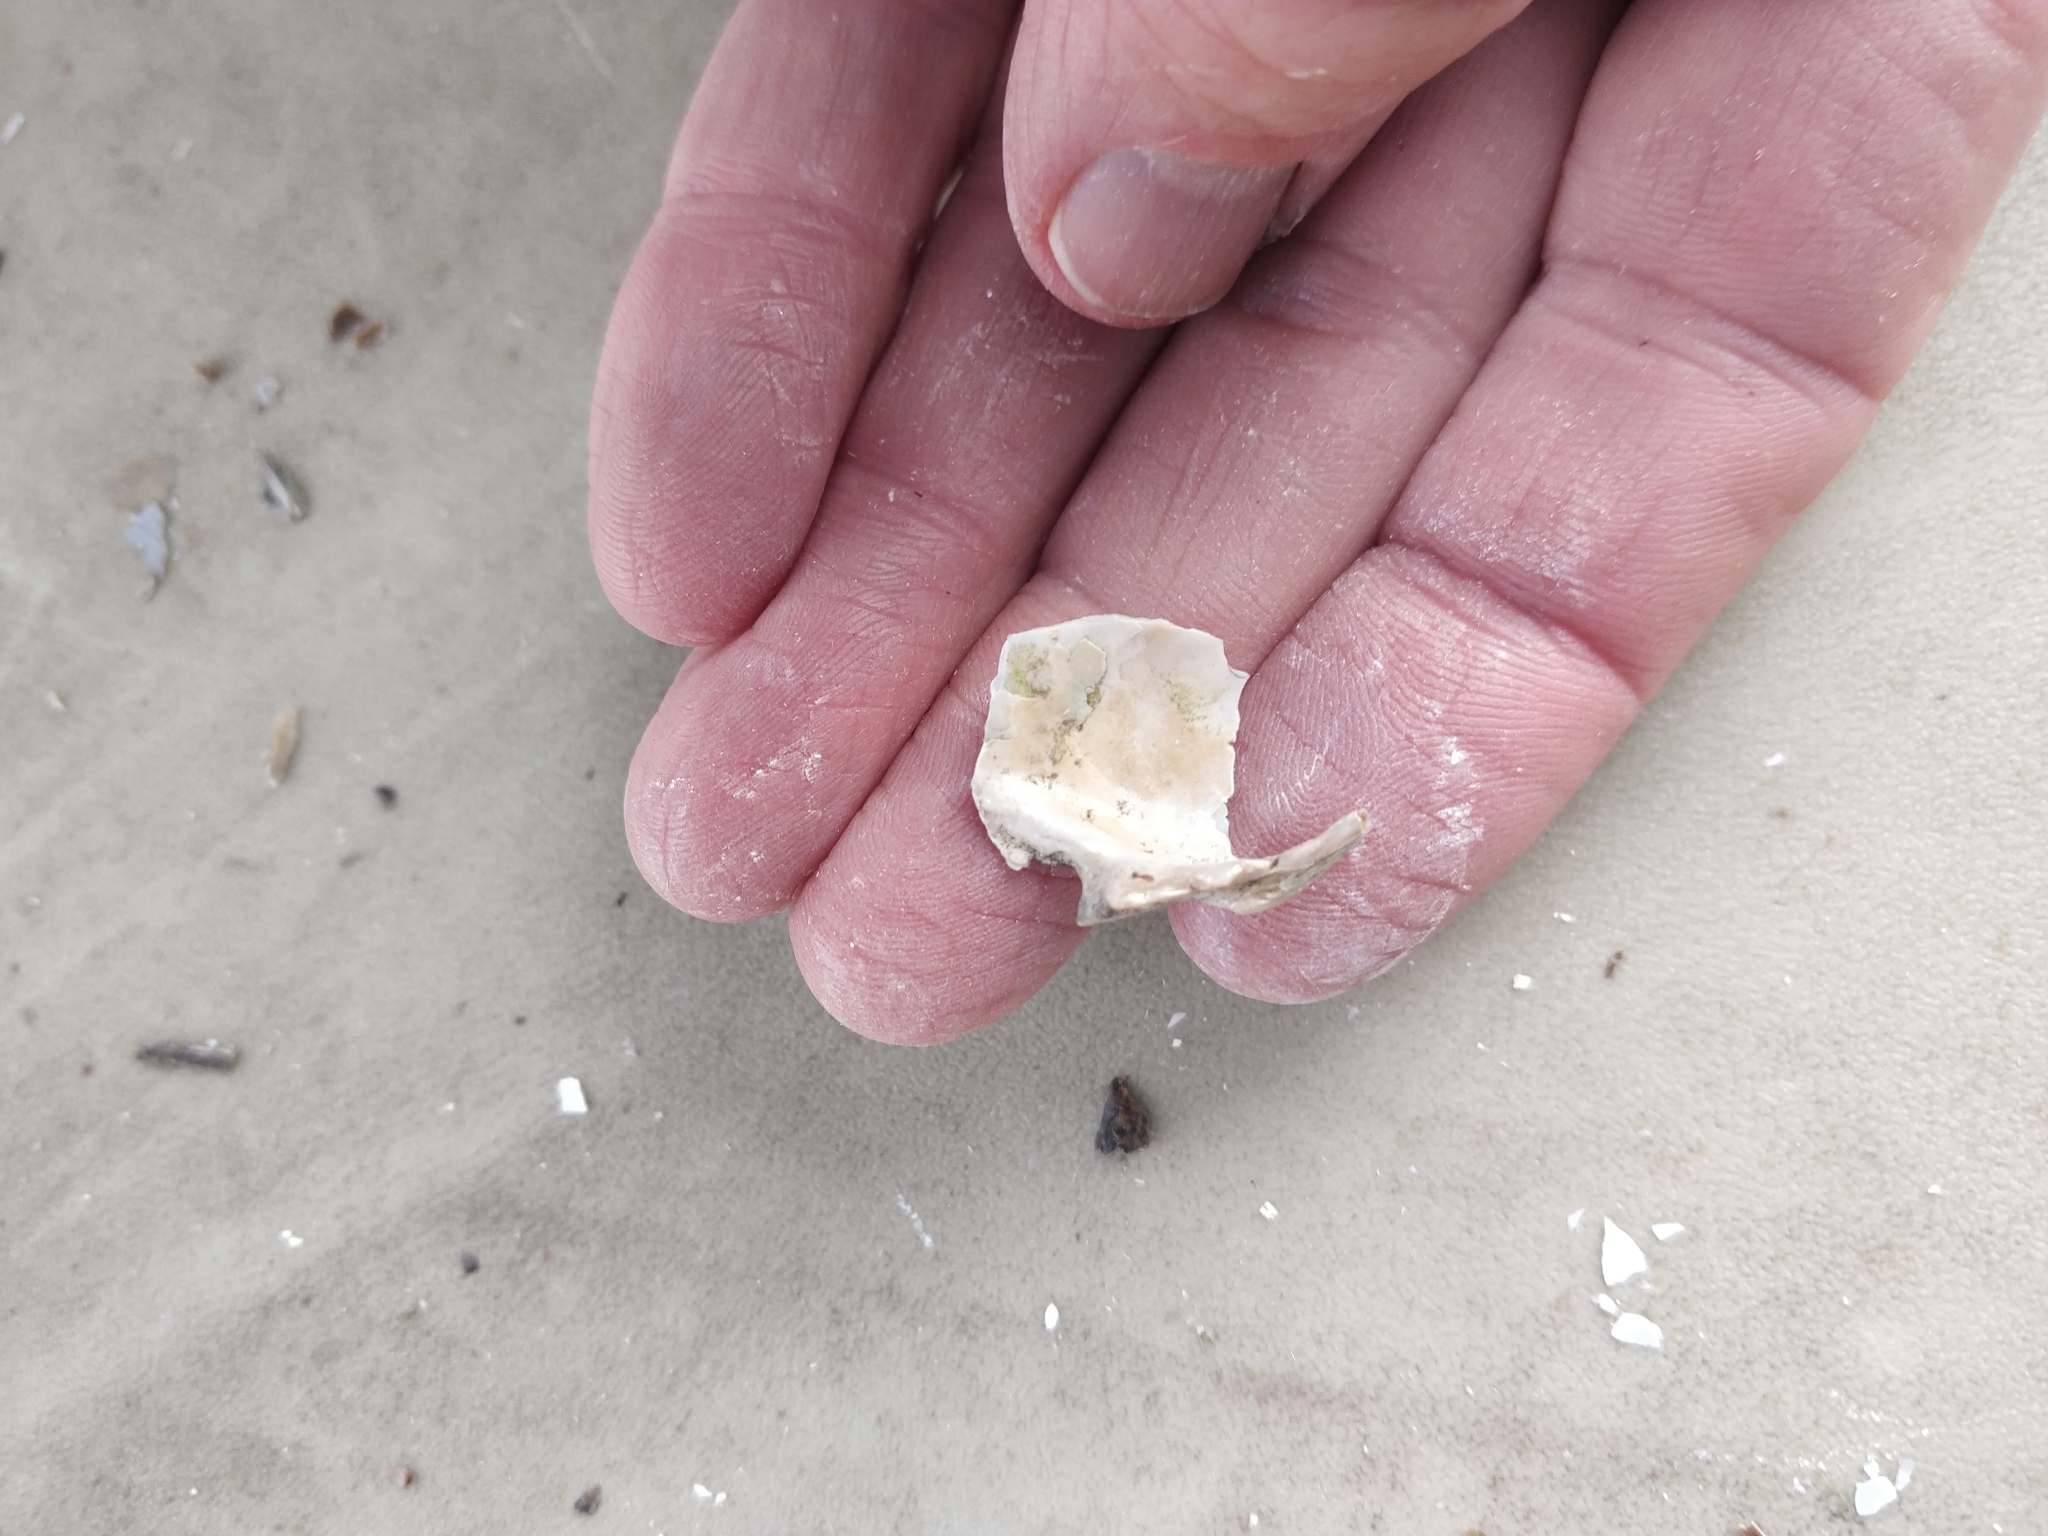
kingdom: Animalia
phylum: Mollusca
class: Bivalvia
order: Unionida
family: Unionidae
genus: Lampsilis
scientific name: Lampsilis cardium
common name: Plain pocketbook
